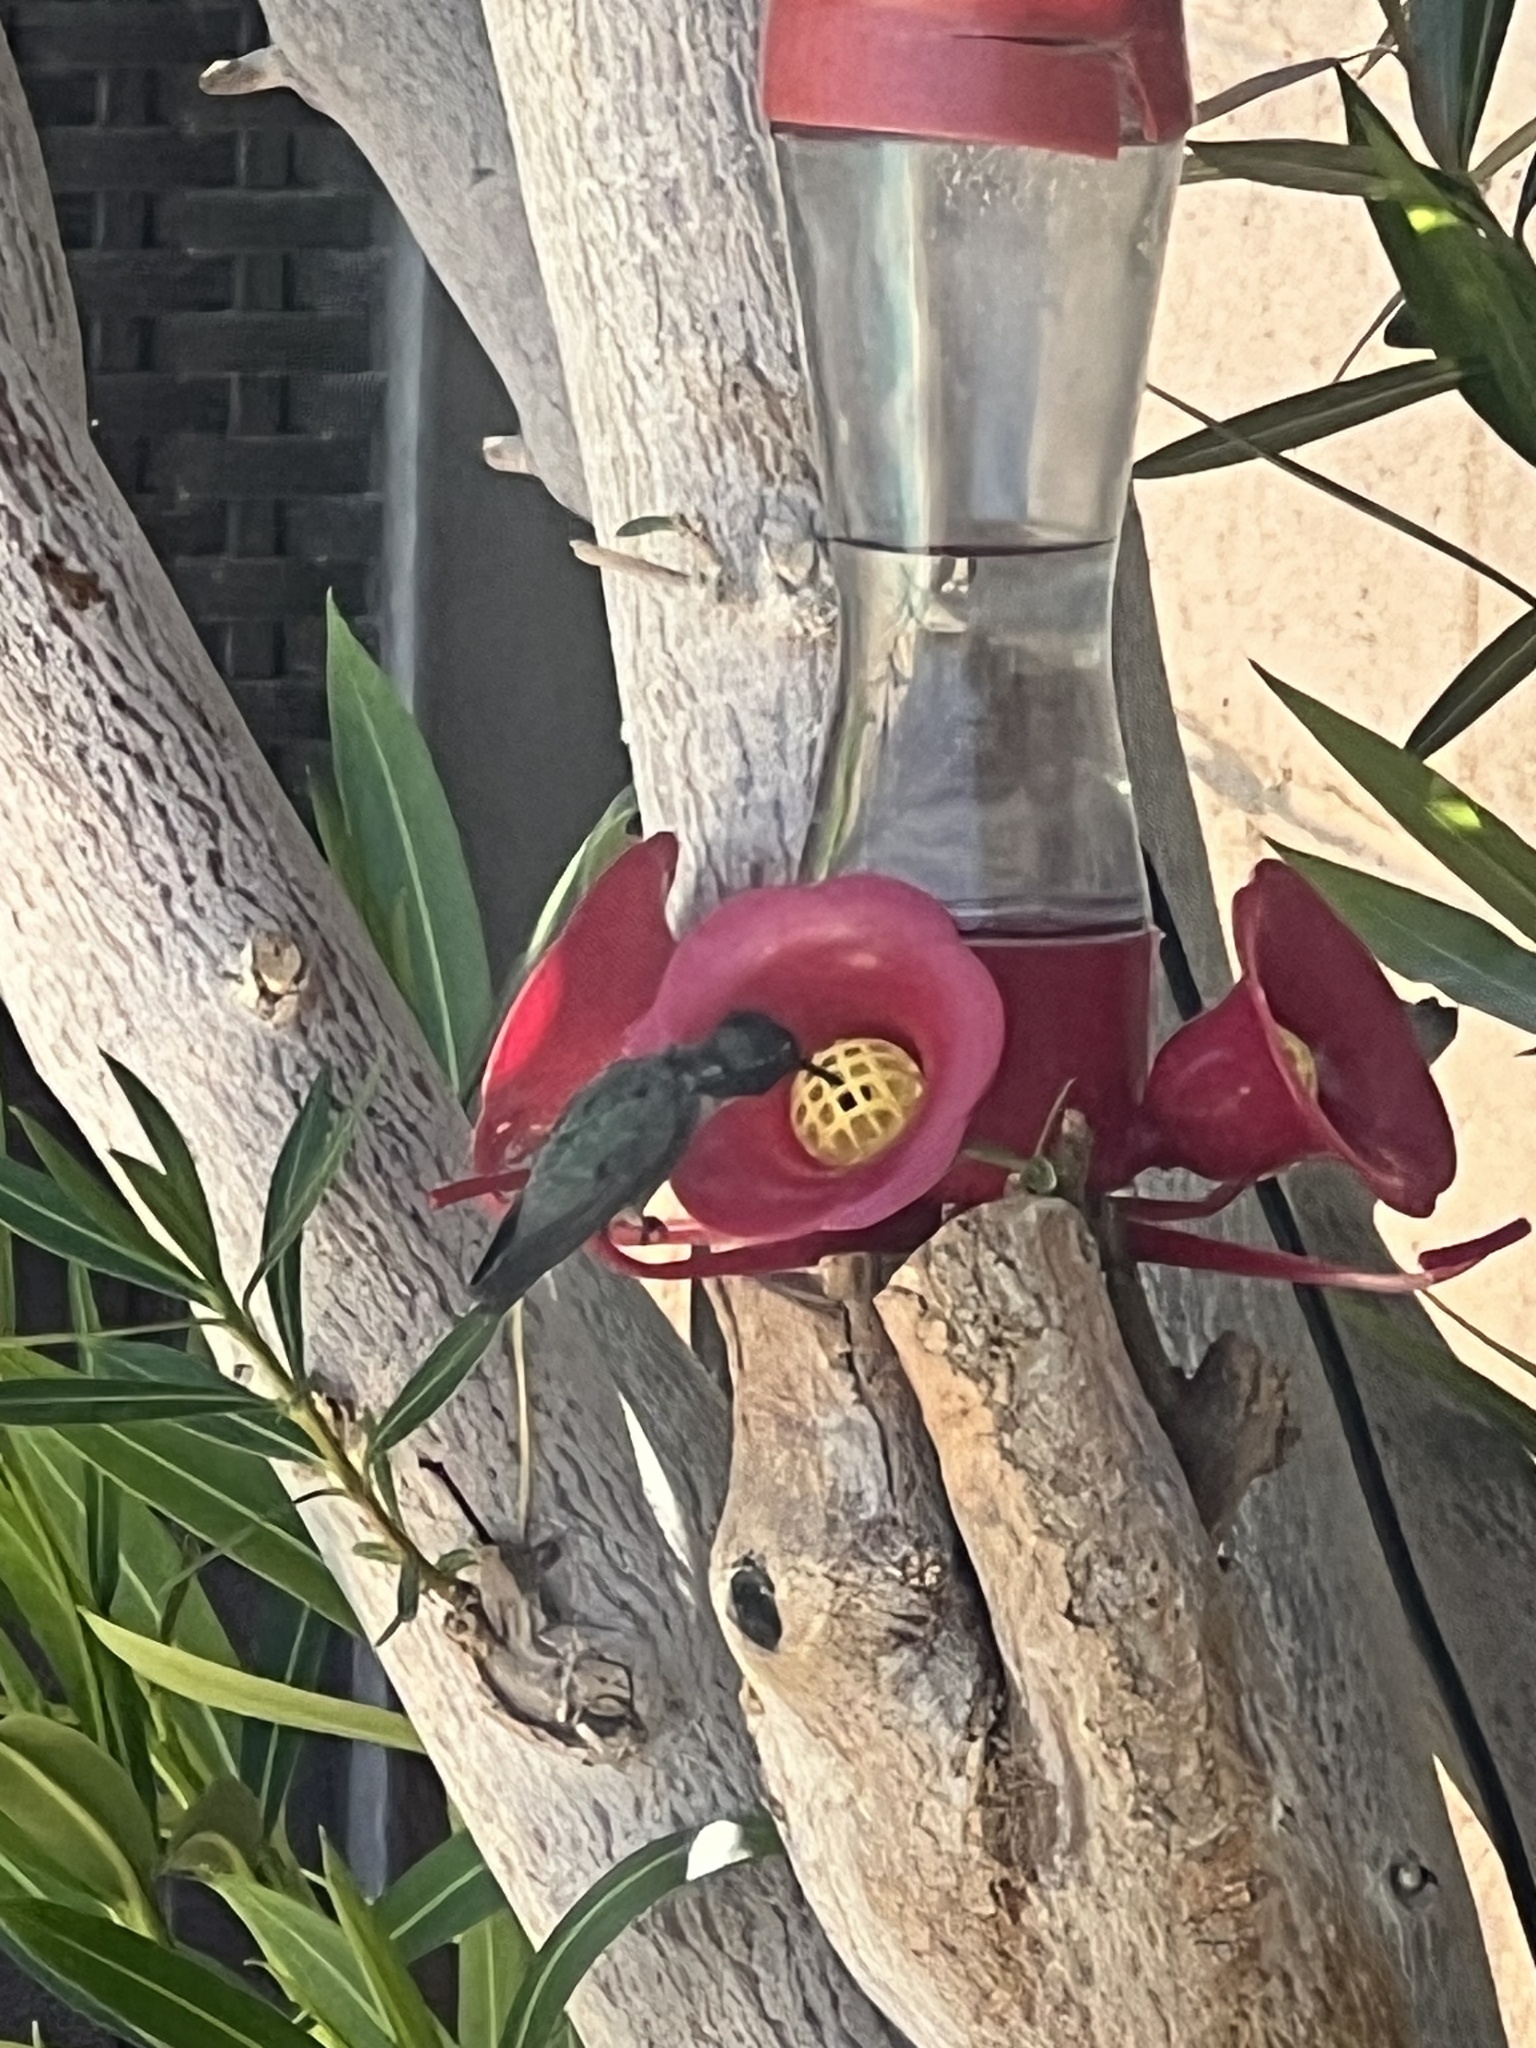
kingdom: Animalia
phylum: Chordata
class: Aves
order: Apodiformes
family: Trochilidae
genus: Calypte
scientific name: Calypte costae
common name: Costa's hummingbird
